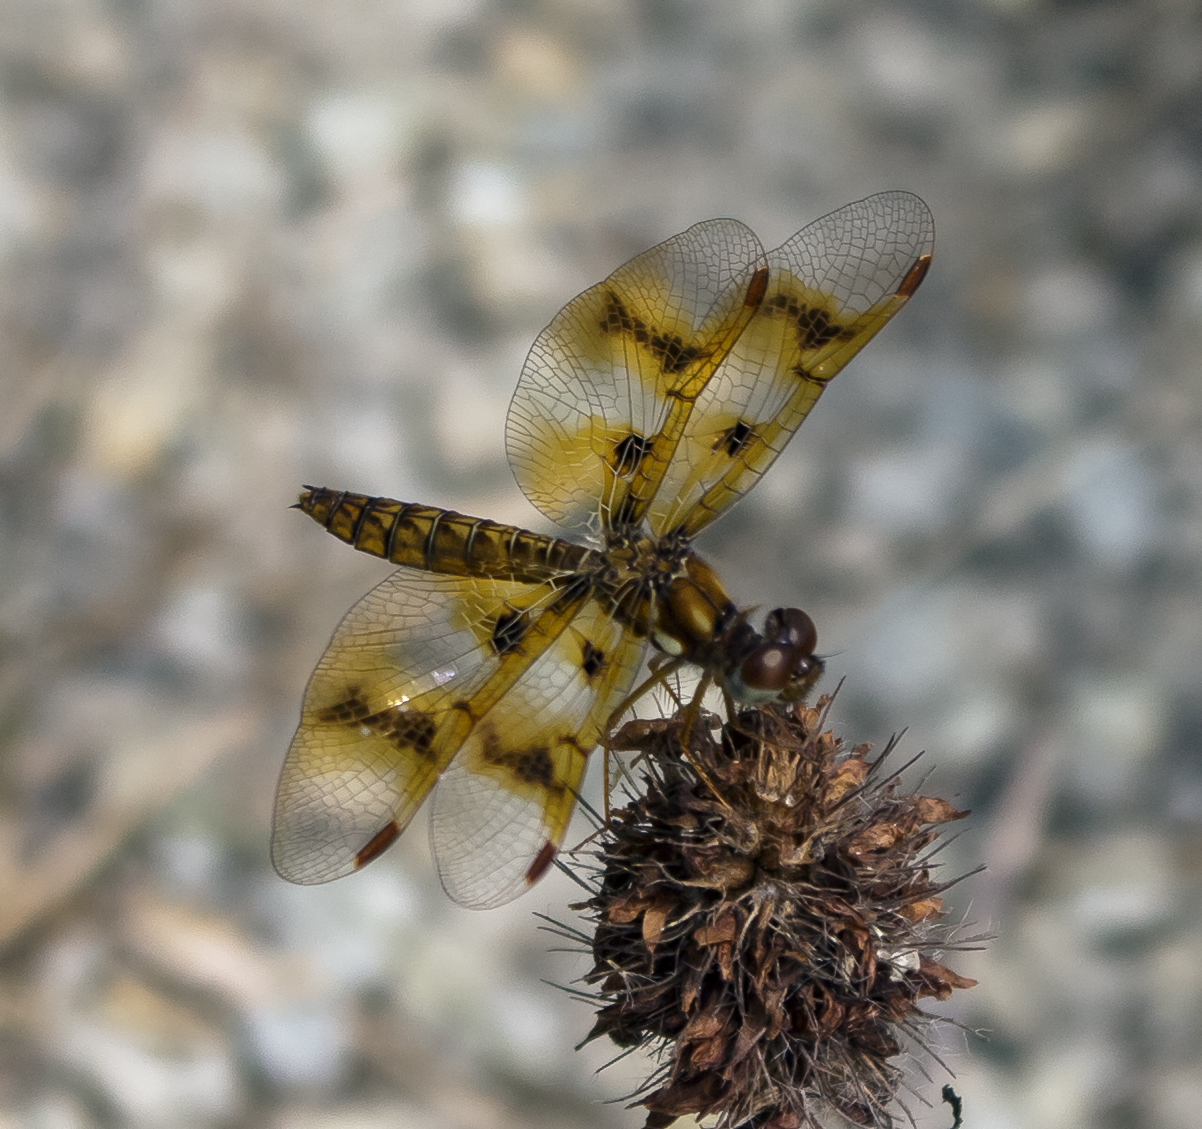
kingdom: Animalia
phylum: Arthropoda
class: Insecta
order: Odonata
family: Libellulidae
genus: Perithemis
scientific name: Perithemis tenera
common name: Eastern amberwing
